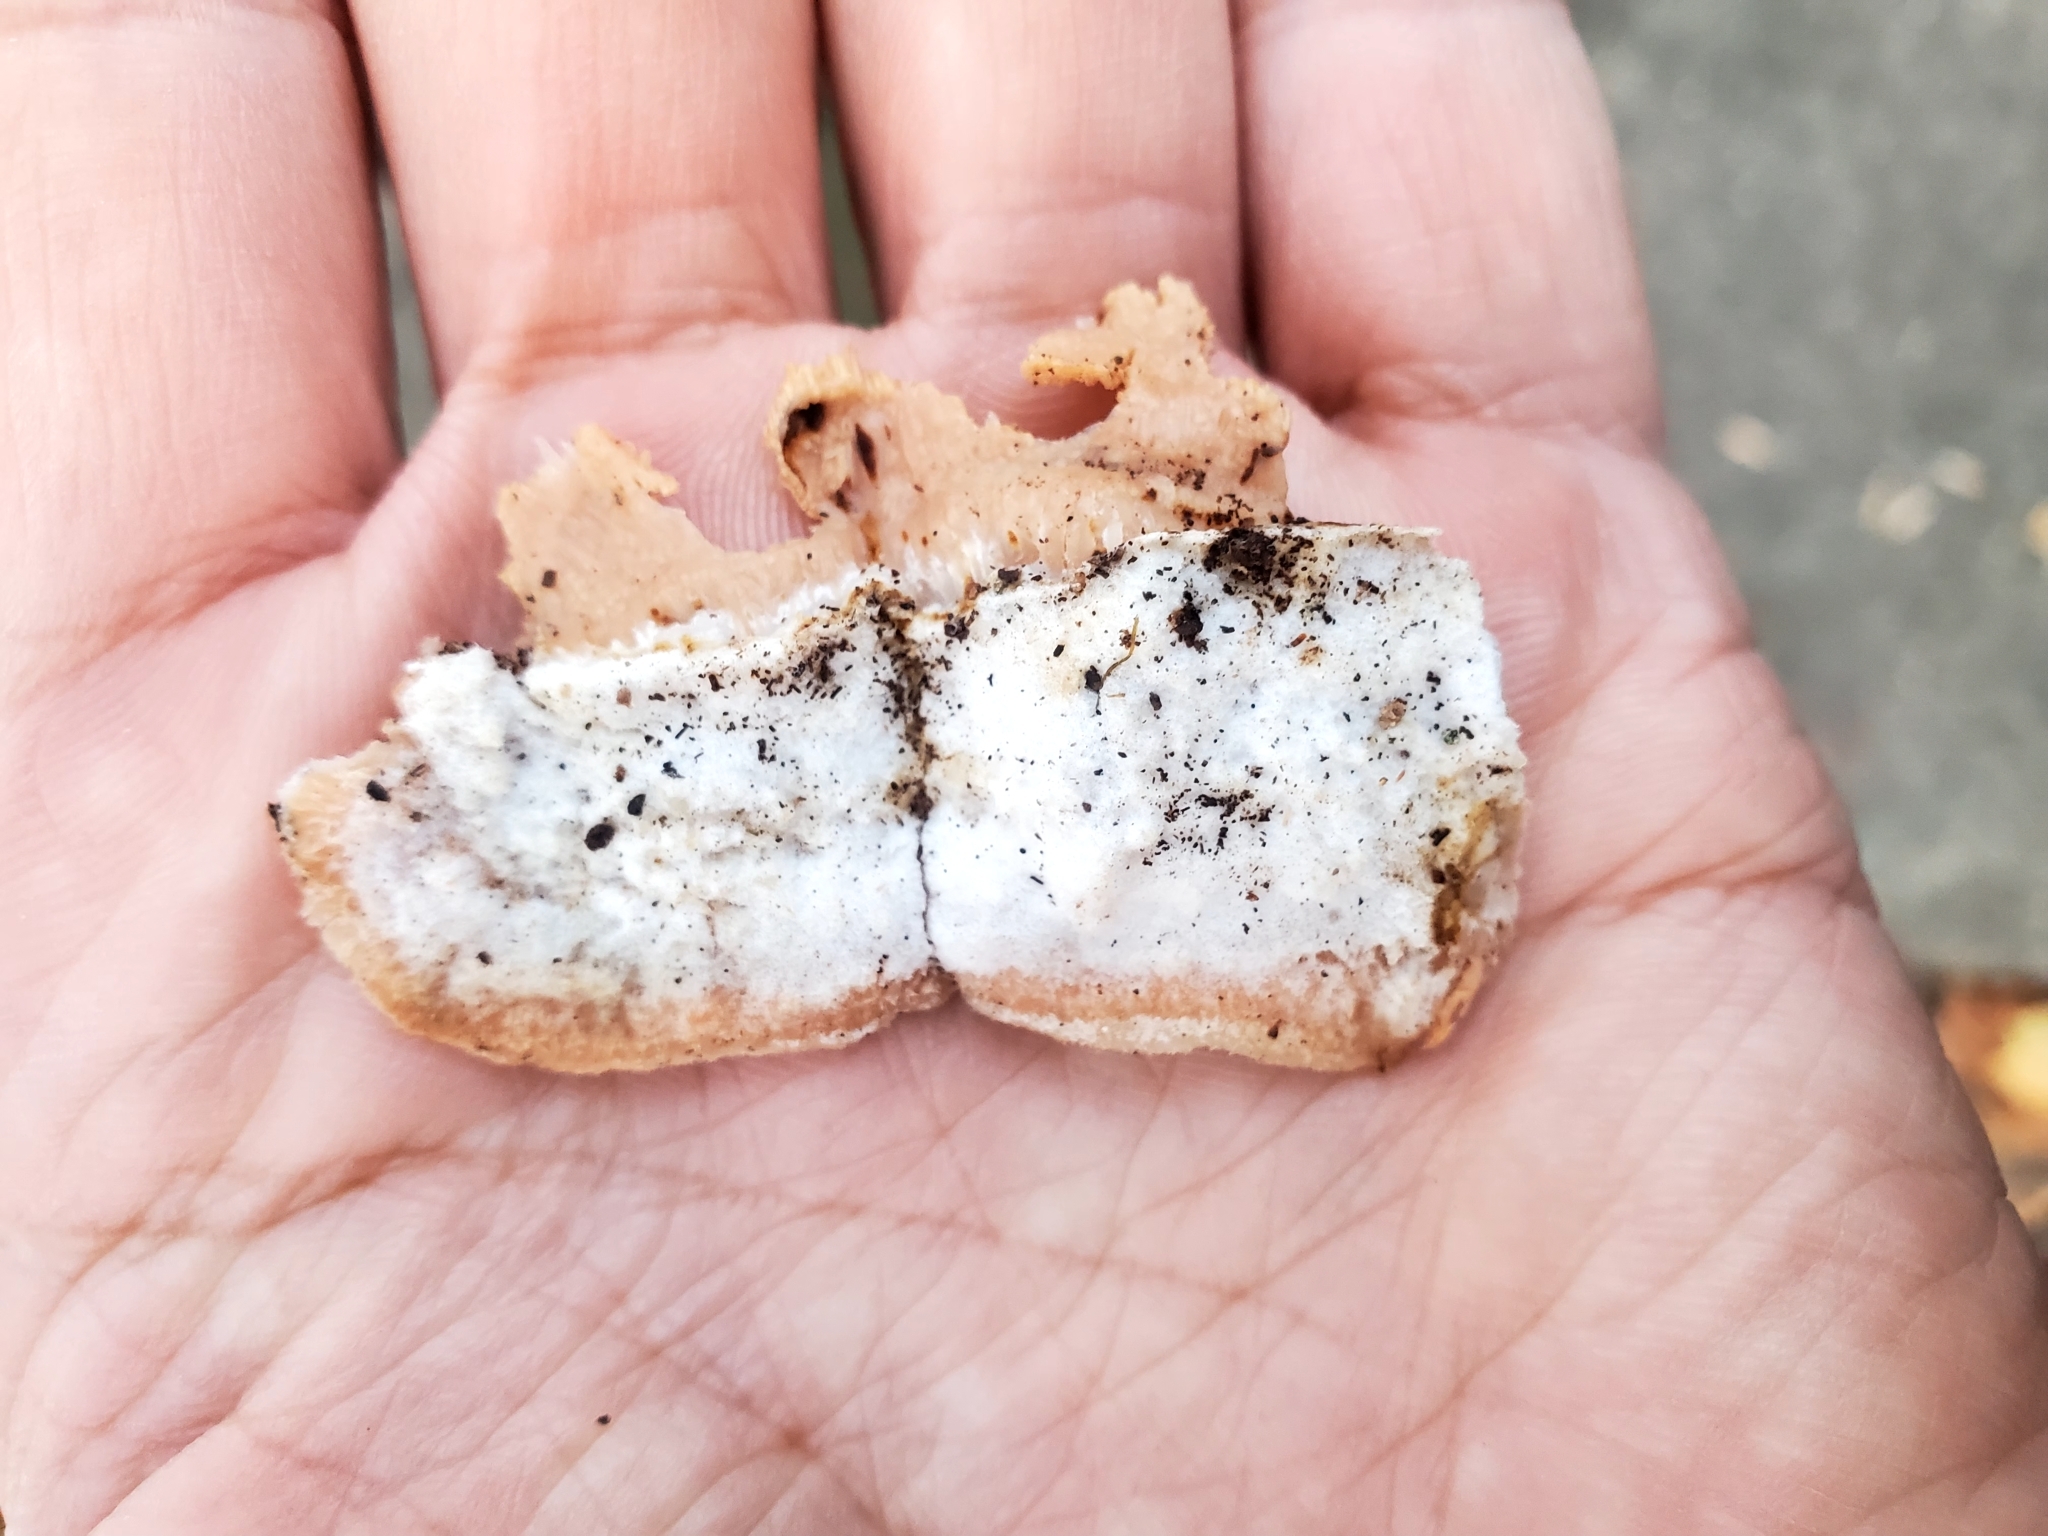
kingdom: Fungi
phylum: Basidiomycota
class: Agaricomycetes
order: Polyporales
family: Meruliaceae
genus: Phlebia
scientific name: Phlebia tremellosa
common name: Jelly rot
